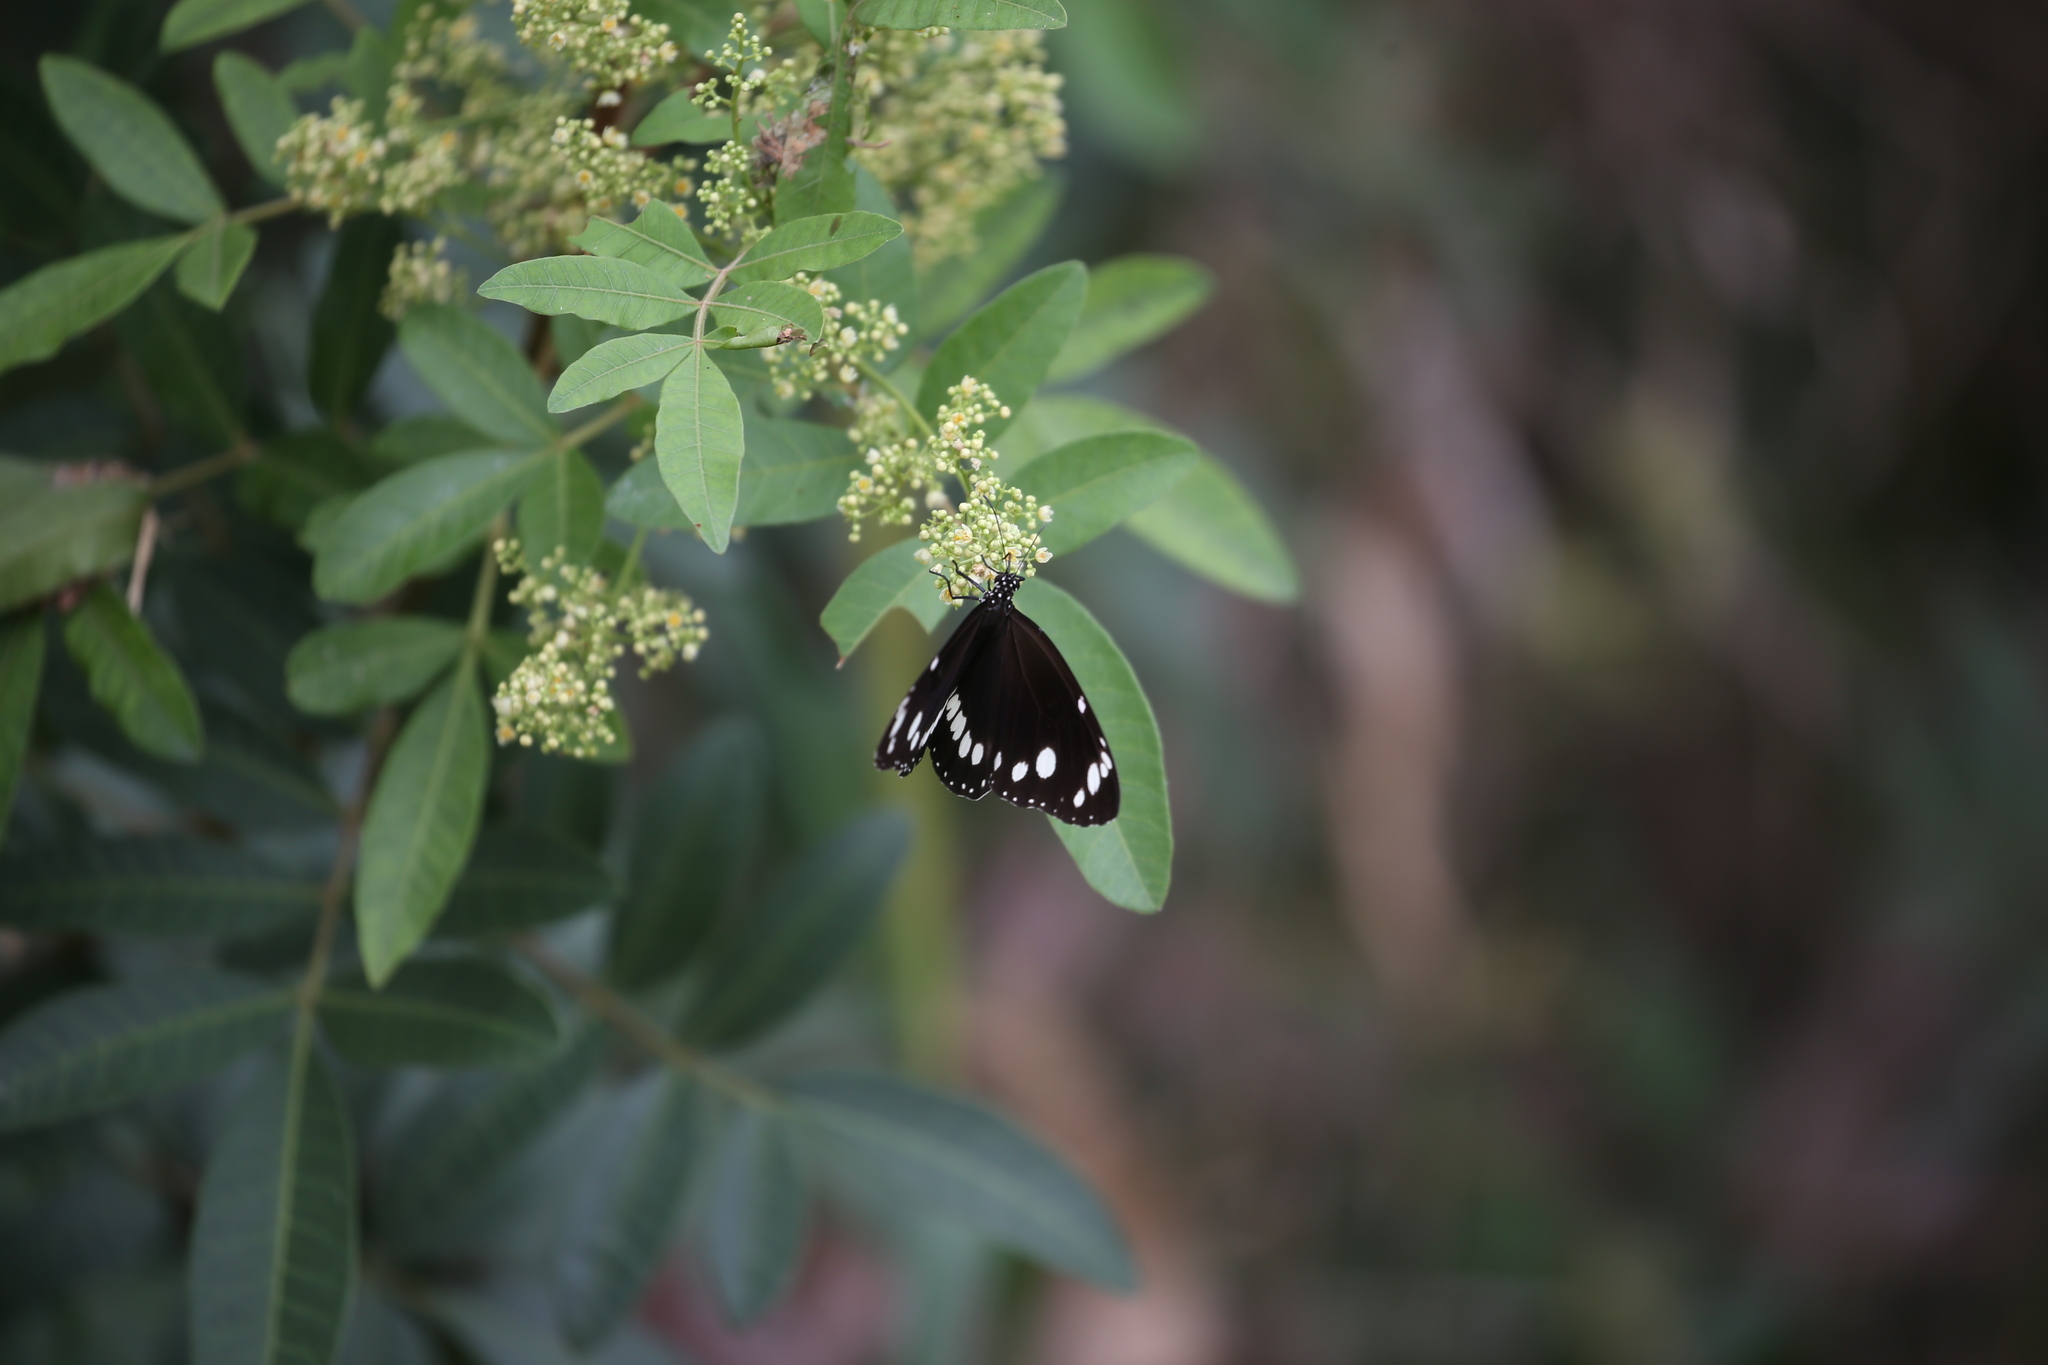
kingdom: Animalia
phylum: Arthropoda
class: Insecta
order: Lepidoptera
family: Nymphalidae
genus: Euploea
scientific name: Euploea core
